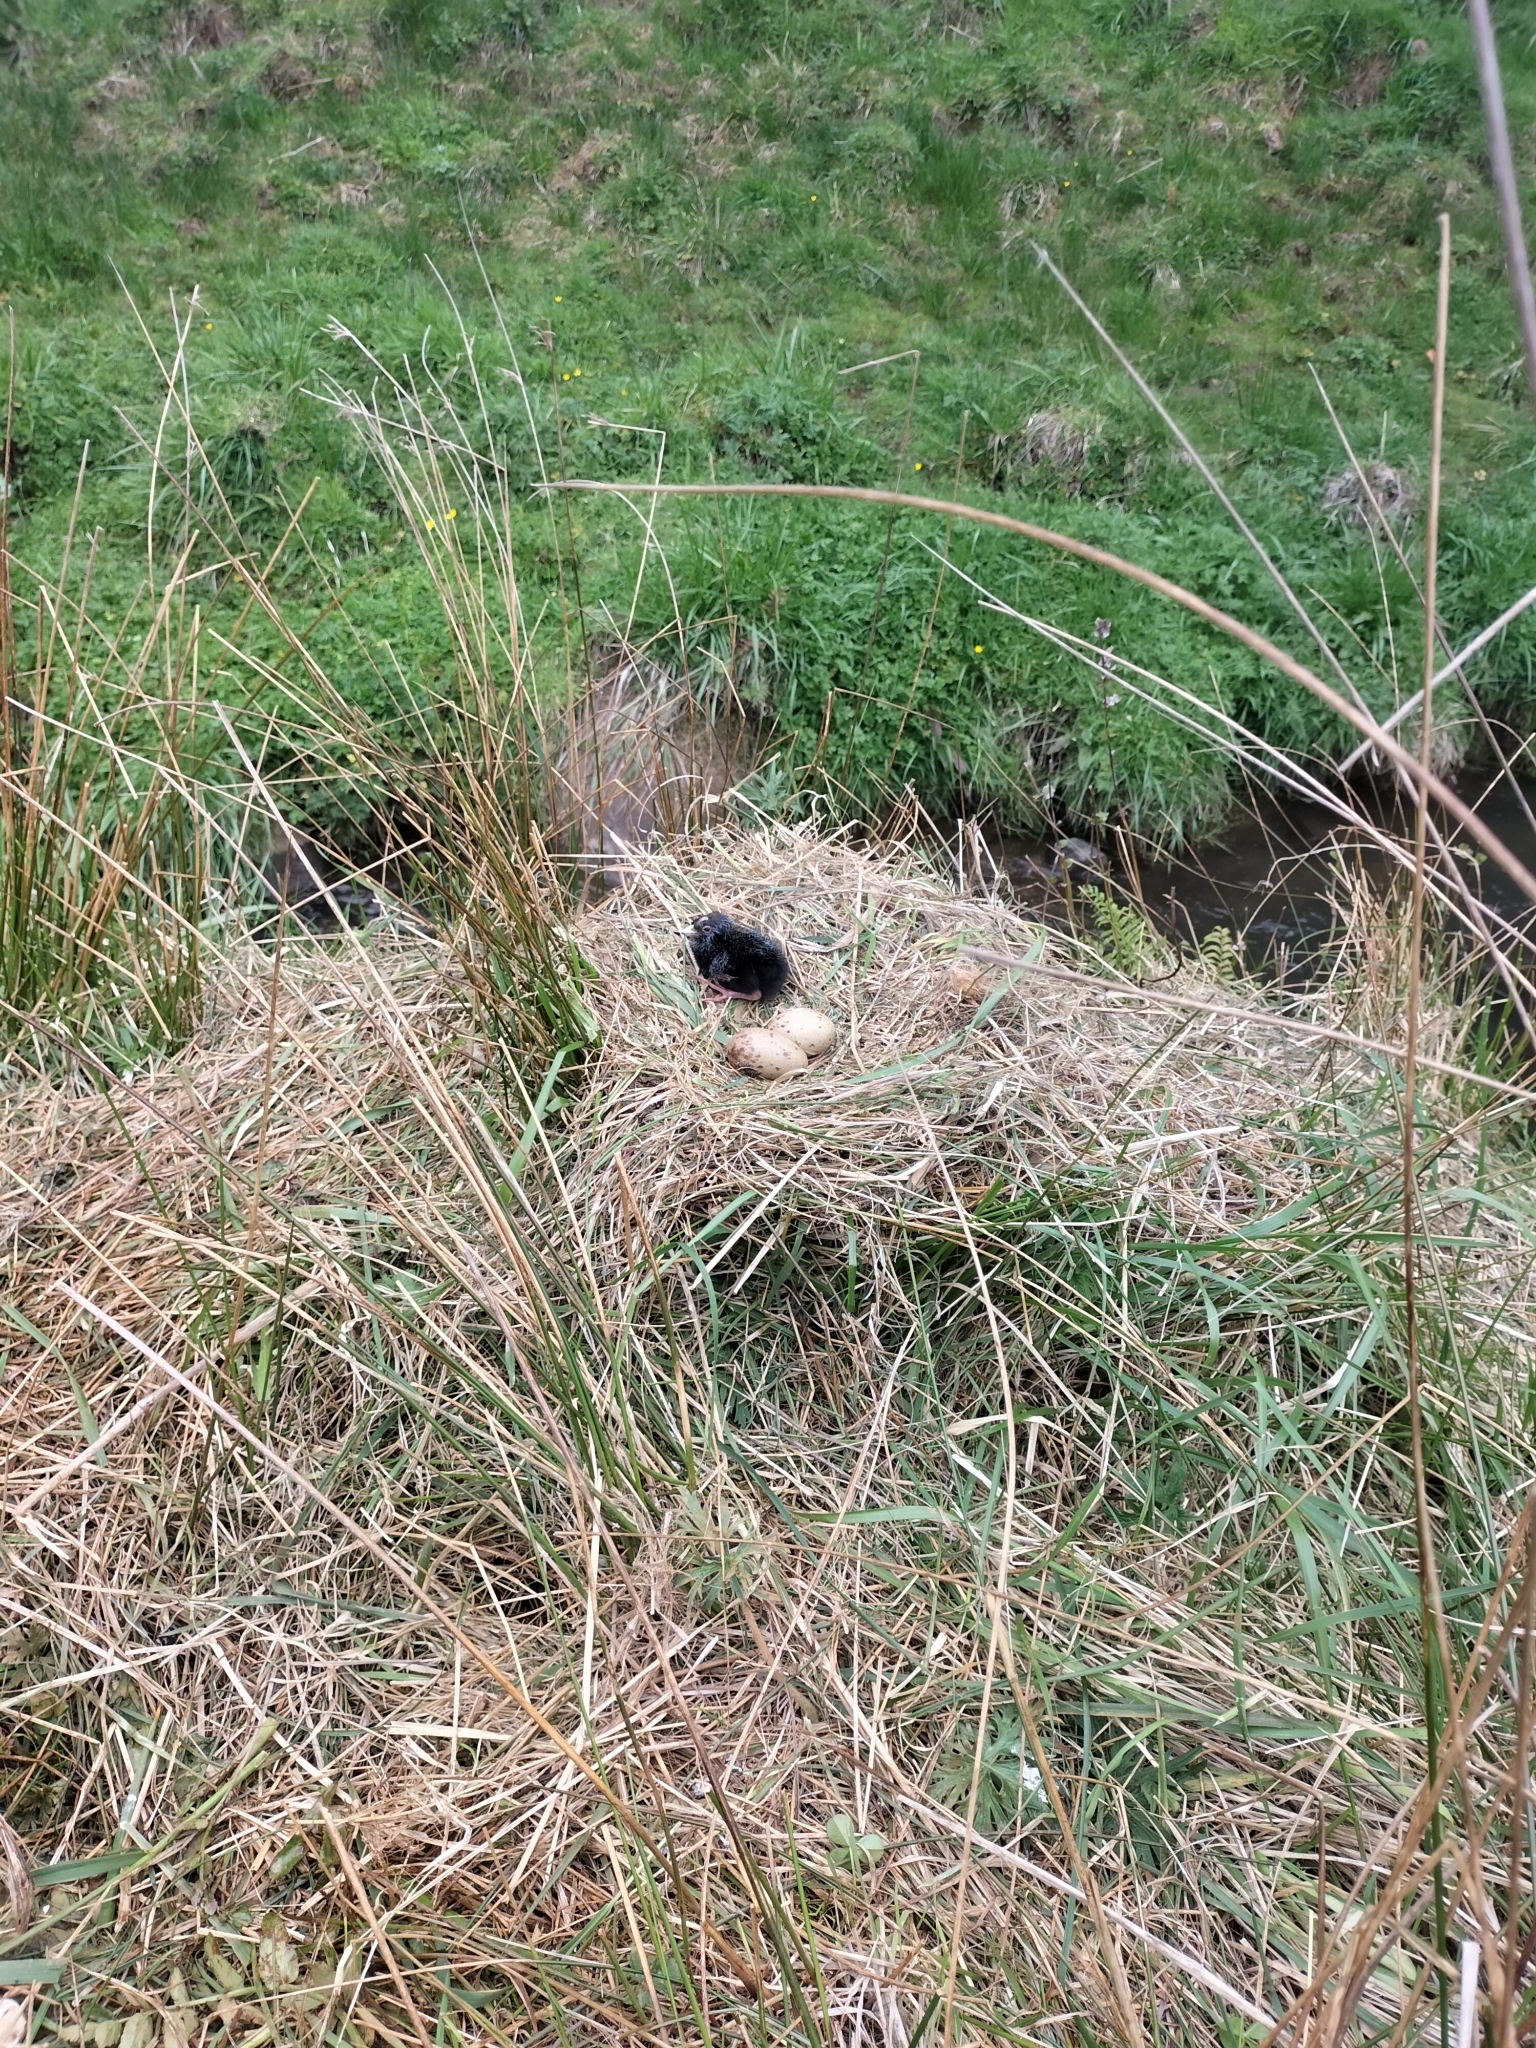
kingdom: Animalia
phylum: Chordata
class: Aves
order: Gruiformes
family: Rallidae
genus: Porphyrio
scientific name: Porphyrio melanotus
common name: Australasian swamphen
